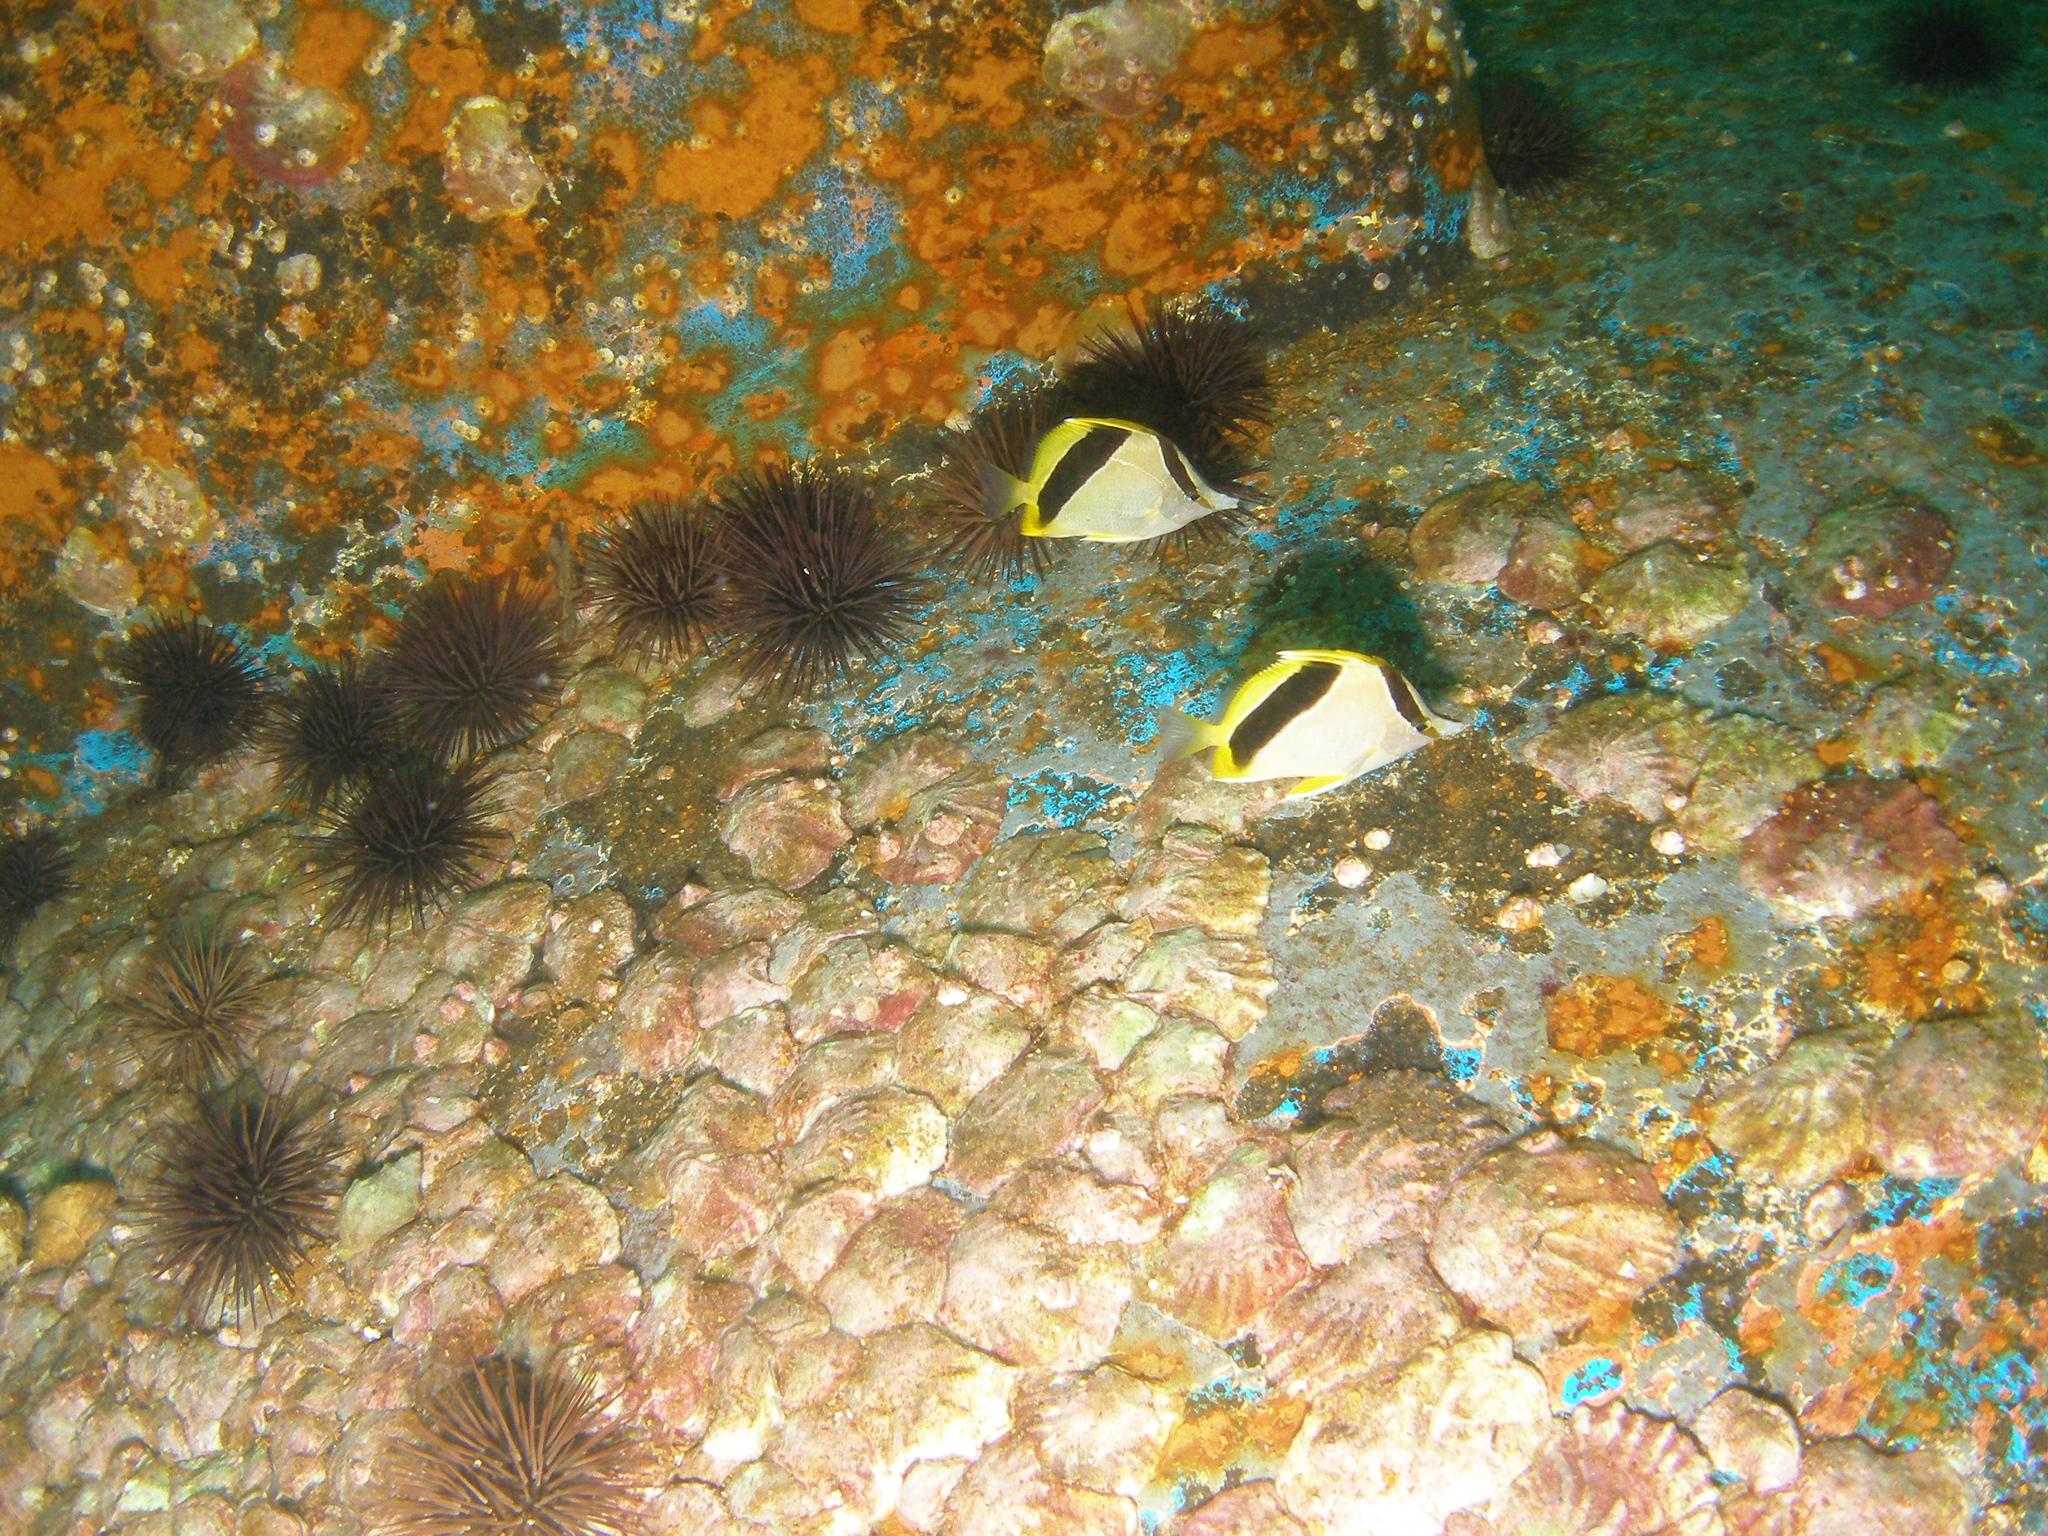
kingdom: Animalia
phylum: Chordata
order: Perciformes
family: Chaetodontidae
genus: Prognathodes
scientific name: Prognathodes aya
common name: Bank butterflyfish
